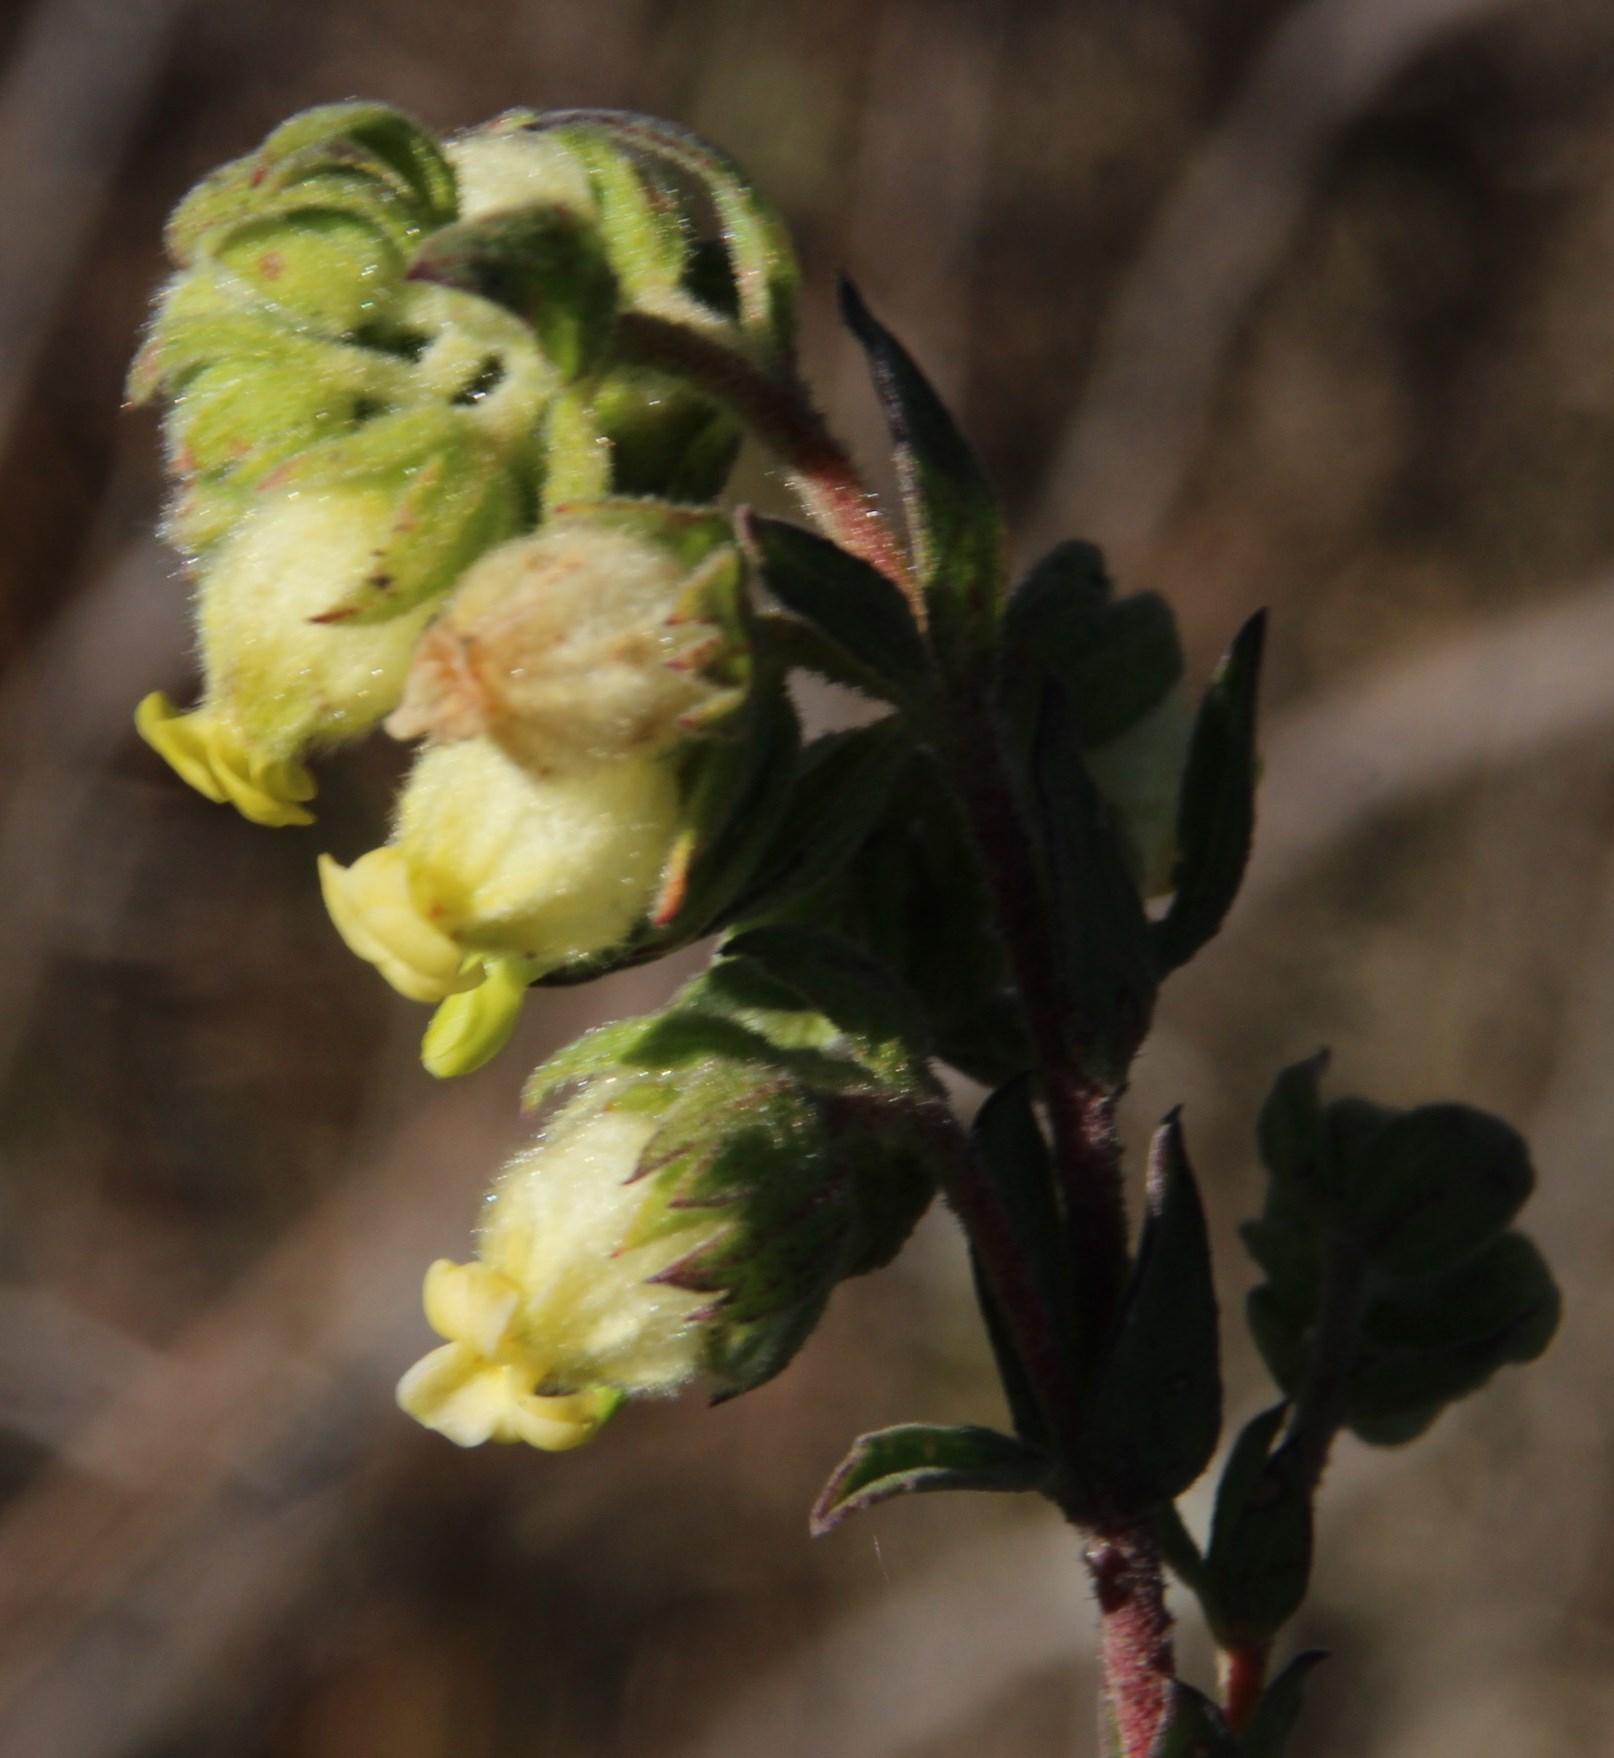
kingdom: Plantae
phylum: Tracheophyta
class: Magnoliopsida
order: Malvales
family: Malvaceae
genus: Hermannia
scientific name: Hermannia hyssopifolia
